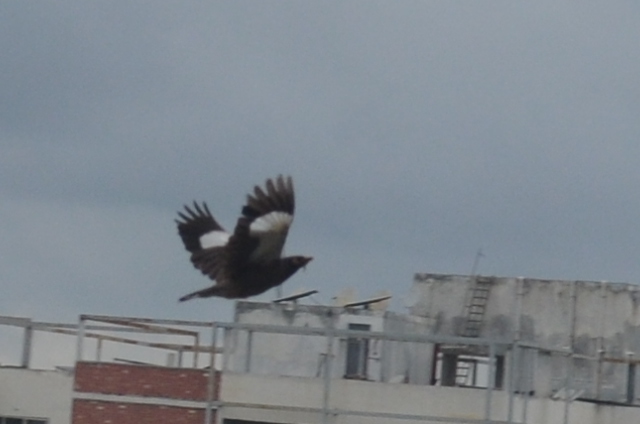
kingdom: Animalia
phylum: Chordata
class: Aves
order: Passeriformes
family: Sturnidae
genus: Acridotheres
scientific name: Acridotheres tristis
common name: Common myna
